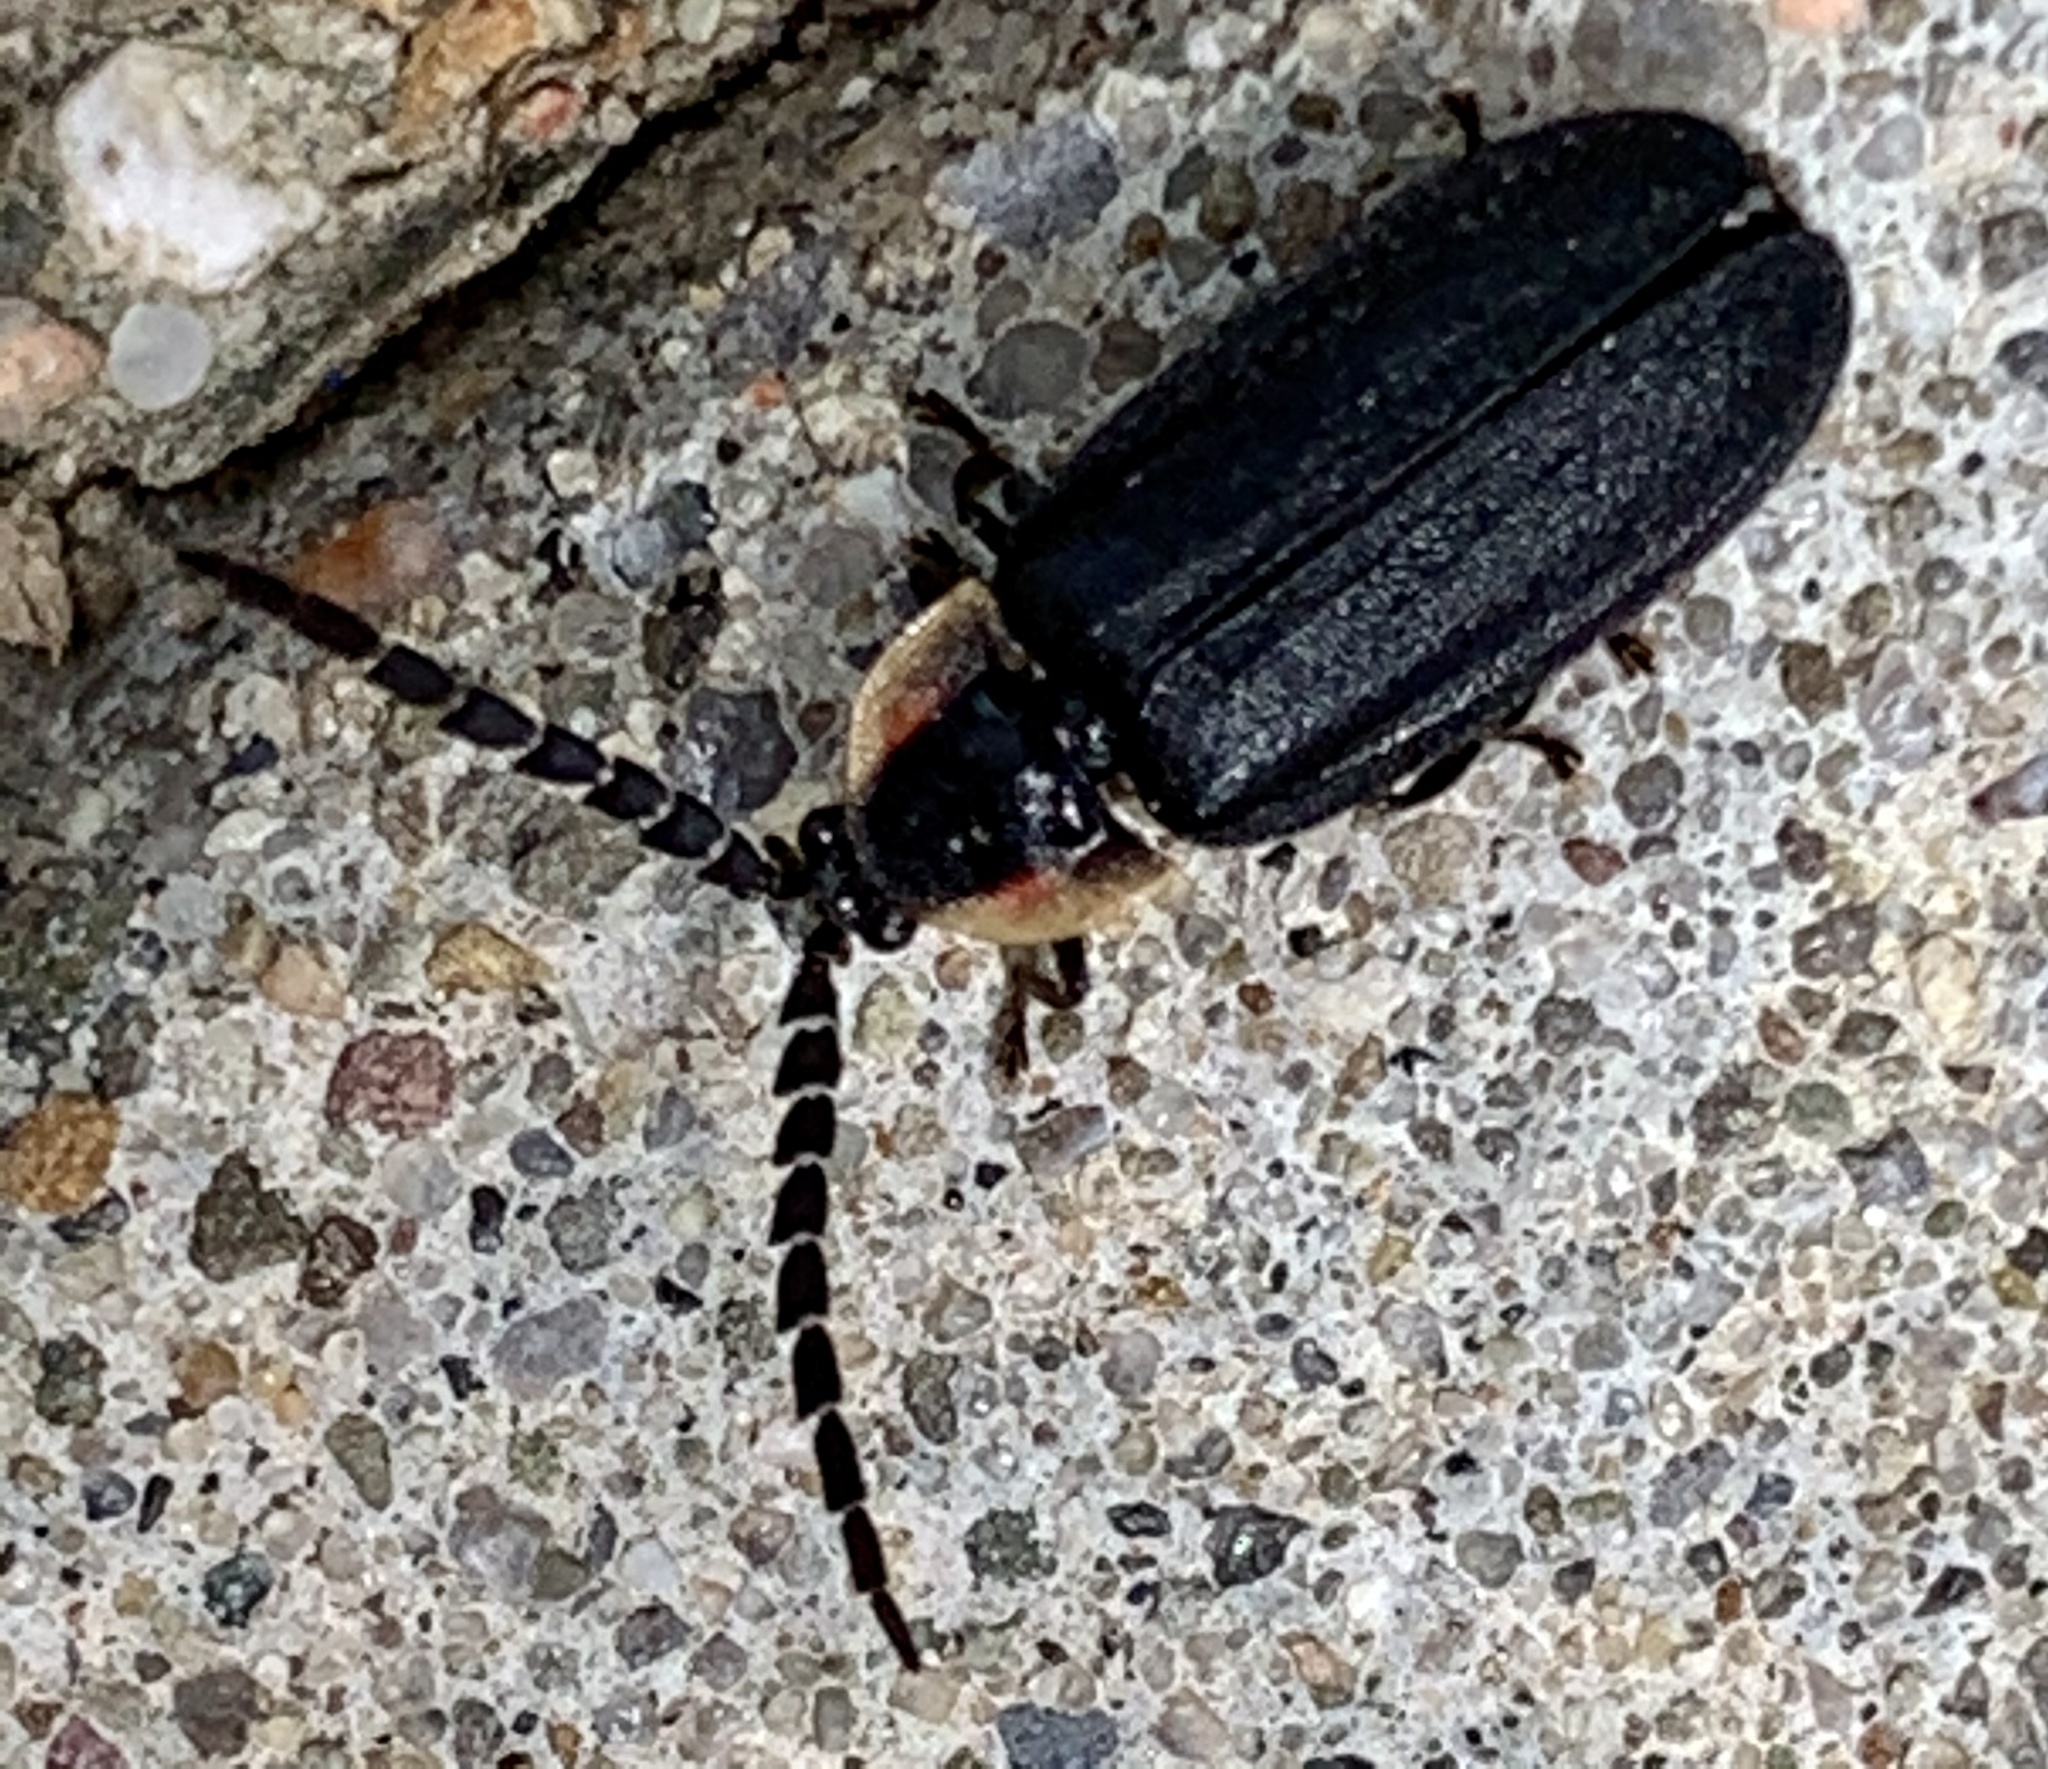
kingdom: Animalia
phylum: Arthropoda
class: Insecta
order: Coleoptera
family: Lampyridae
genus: Lucidota
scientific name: Lucidota atra
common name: Black firefly
